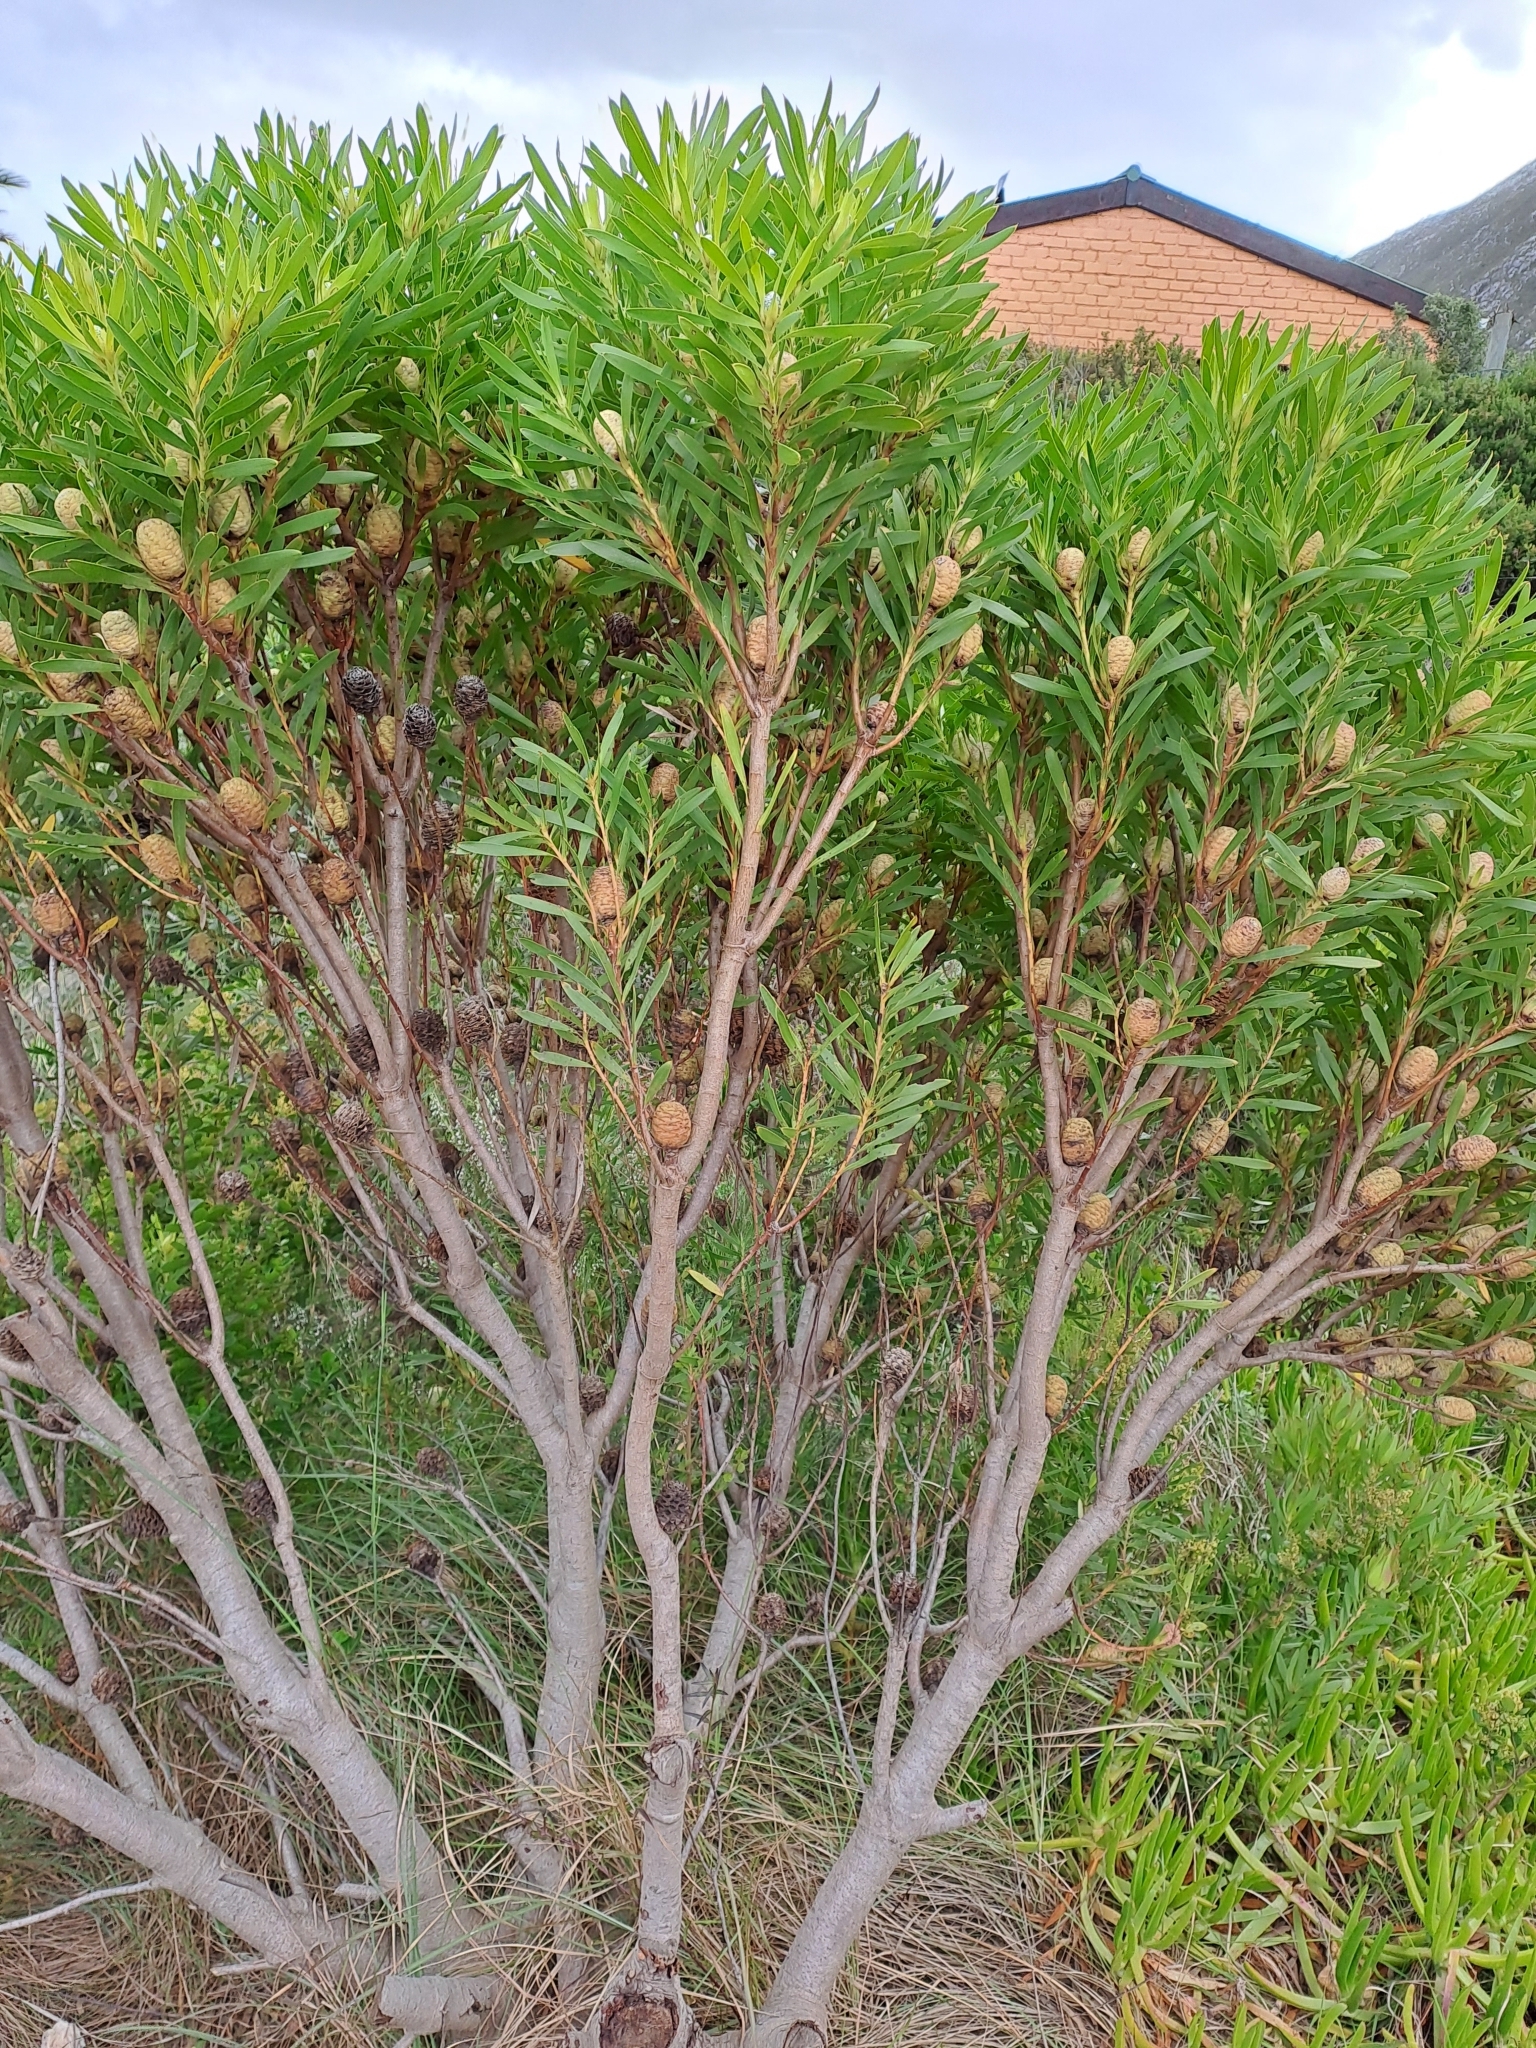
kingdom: Plantae
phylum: Tracheophyta
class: Magnoliopsida
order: Proteales
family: Proteaceae
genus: Leucadendron
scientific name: Leucadendron coniferum
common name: Dune conebush
